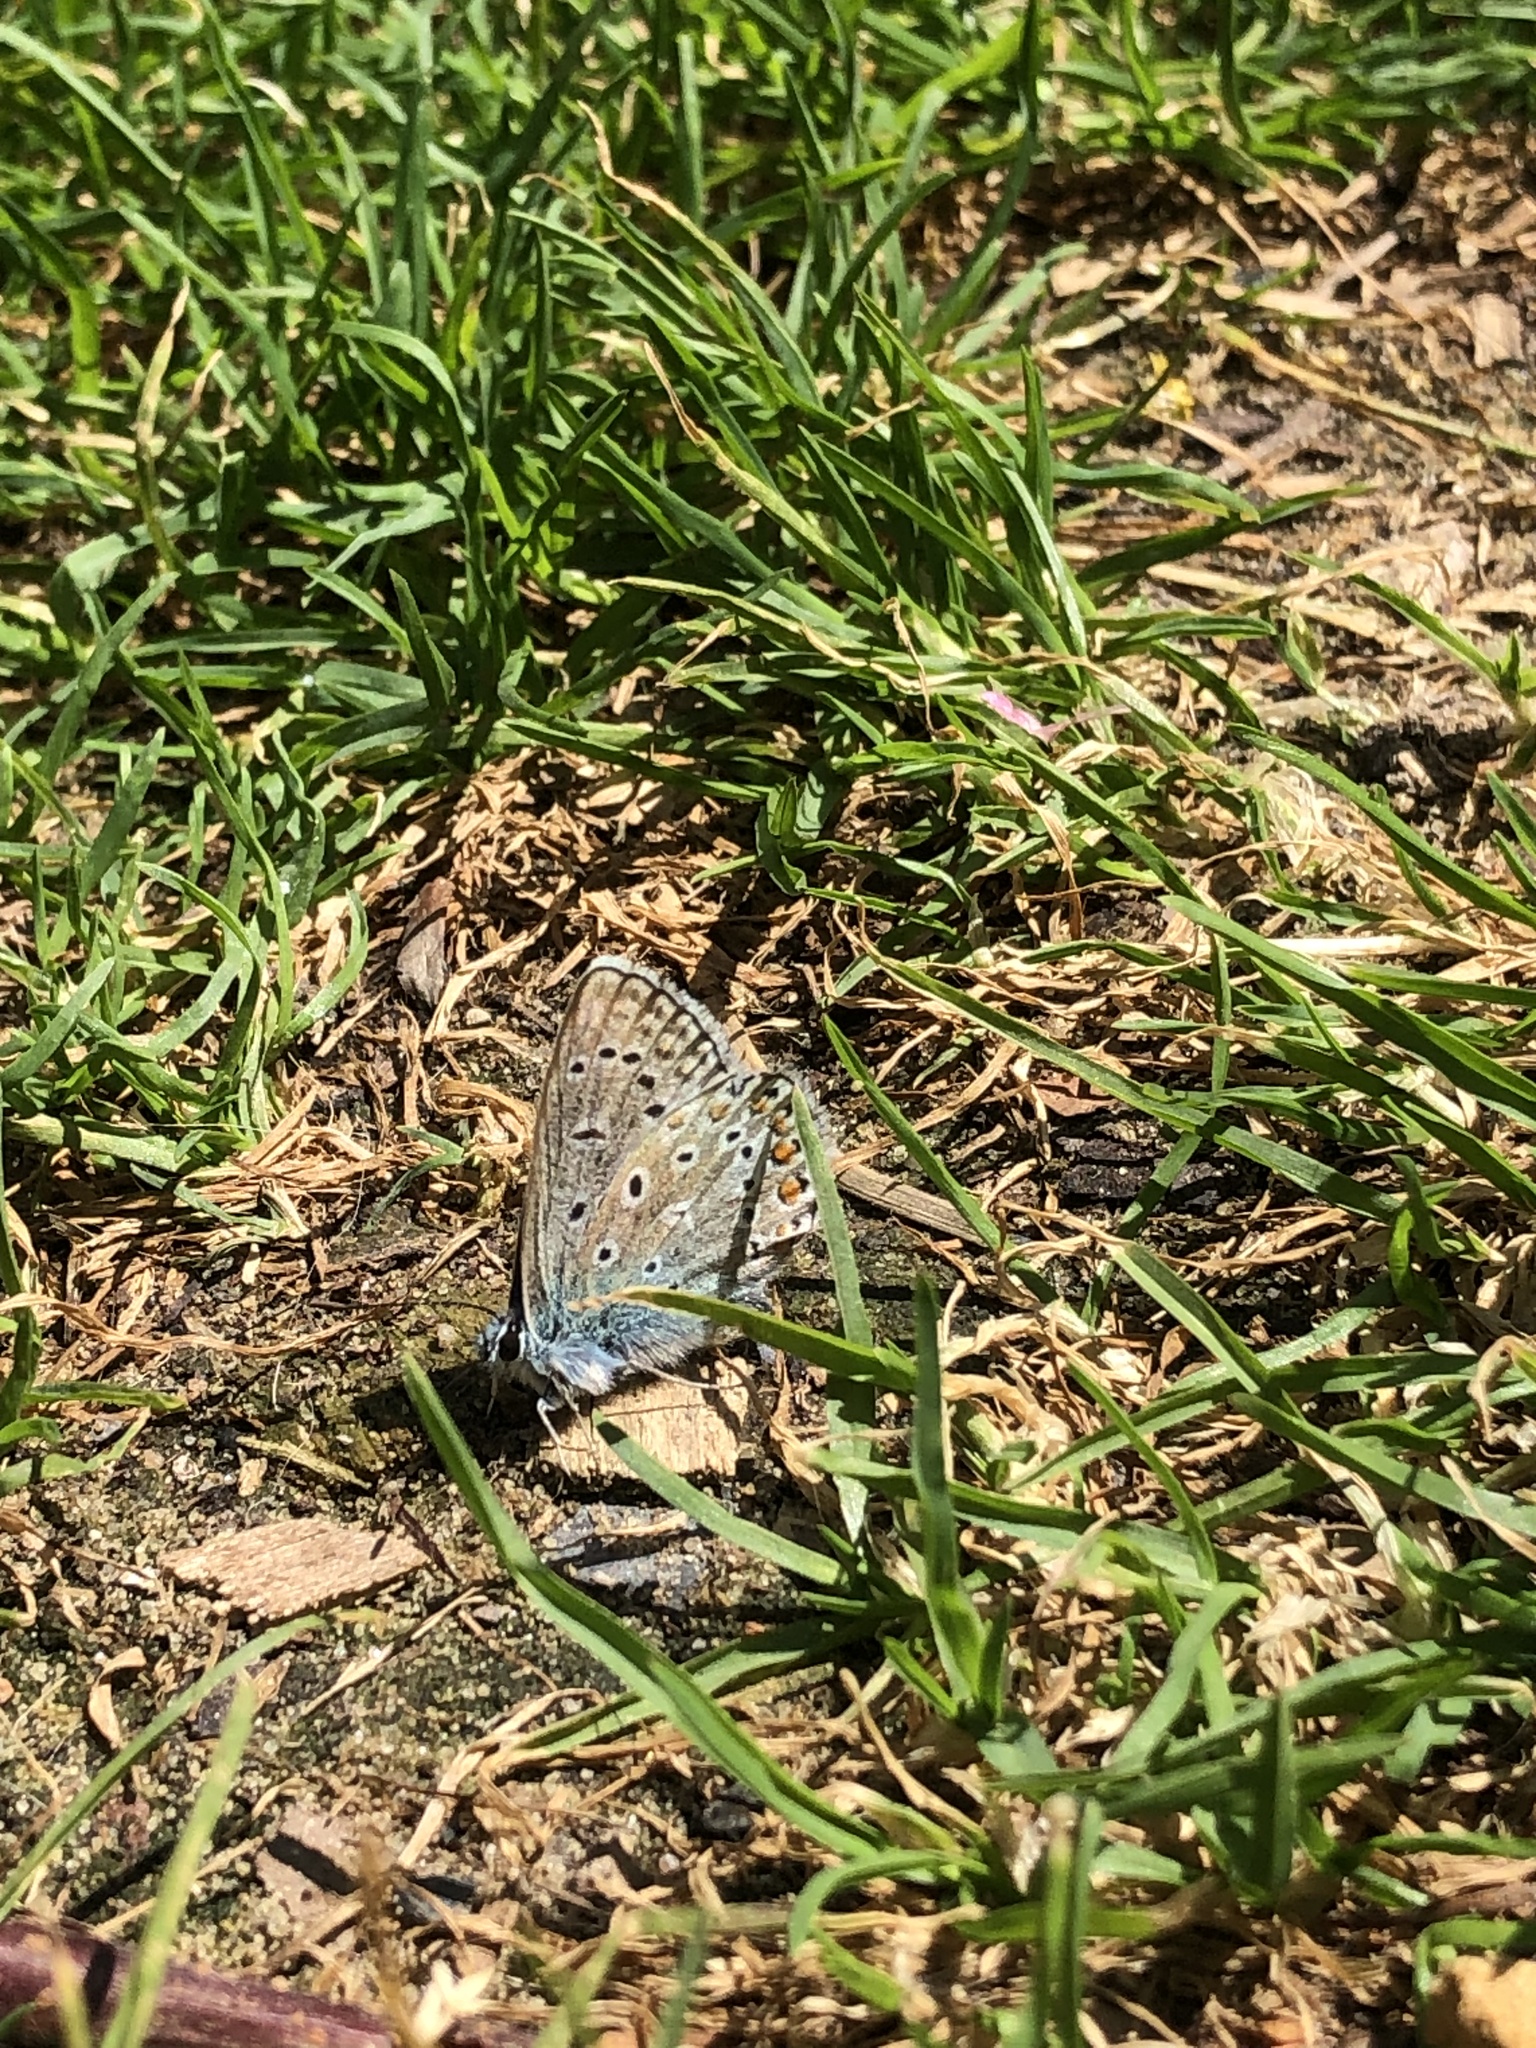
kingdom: Animalia
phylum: Arthropoda
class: Insecta
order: Lepidoptera
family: Lycaenidae
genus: Polyommatus
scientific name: Polyommatus icarus
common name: Common blue
